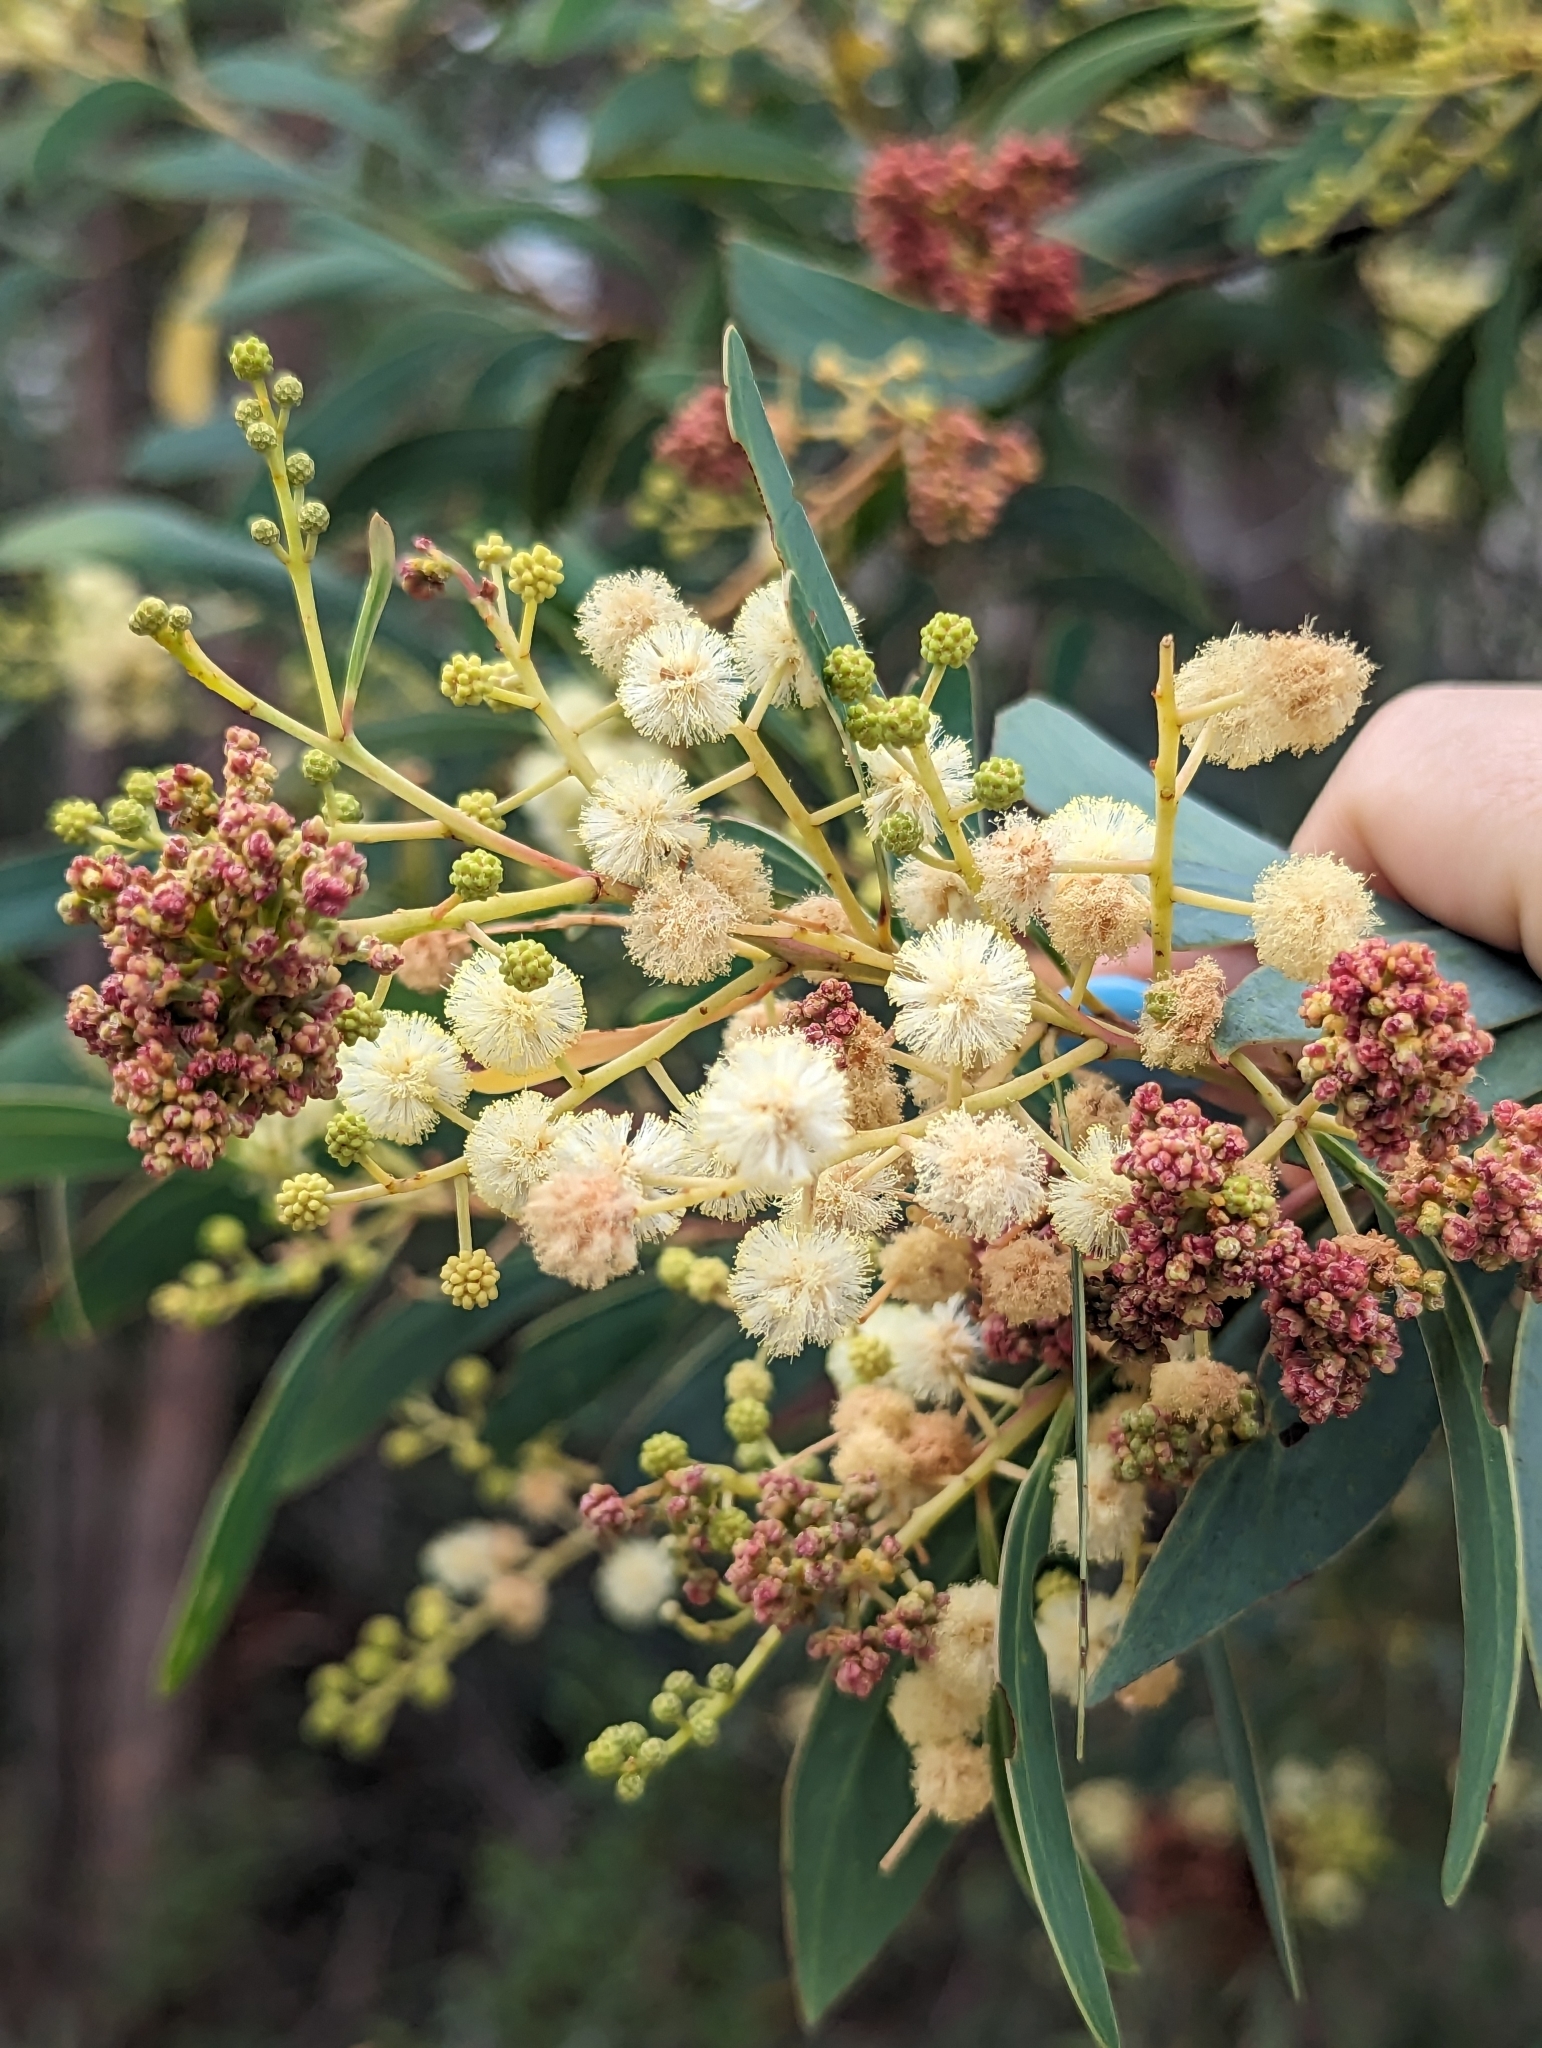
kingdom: Plantae
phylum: Tracheophyta
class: Magnoliopsida
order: Fabales
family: Fabaceae
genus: Acacia
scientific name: Acacia falciformis
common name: Tanning wattle
